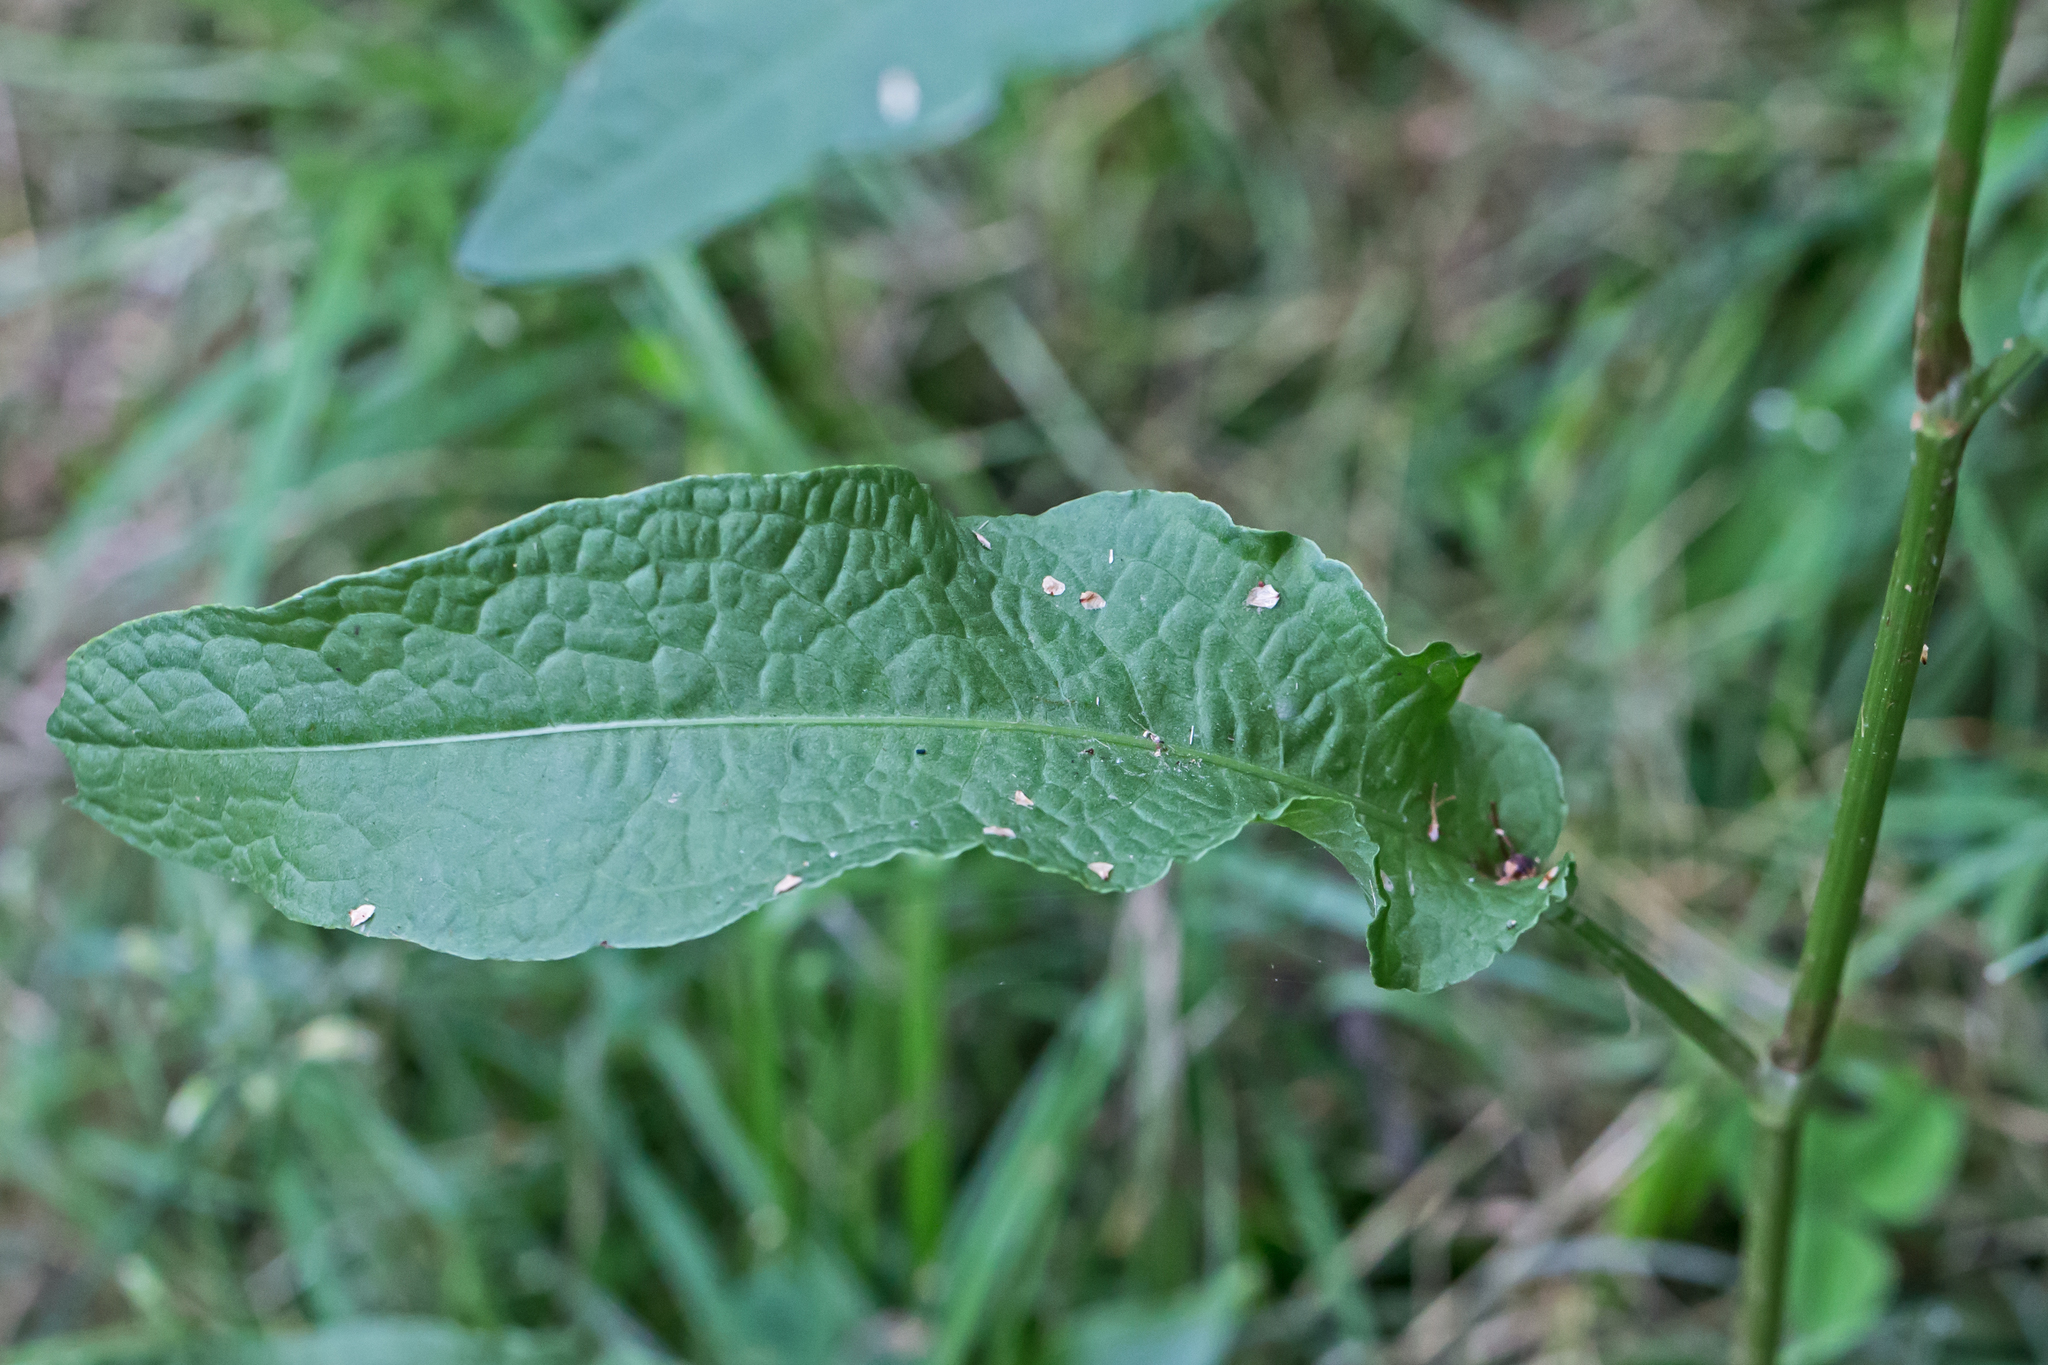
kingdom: Plantae
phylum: Tracheophyta
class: Magnoliopsida
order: Caryophyllales
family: Polygonaceae
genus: Rumex
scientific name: Rumex crispus
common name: Curled dock
